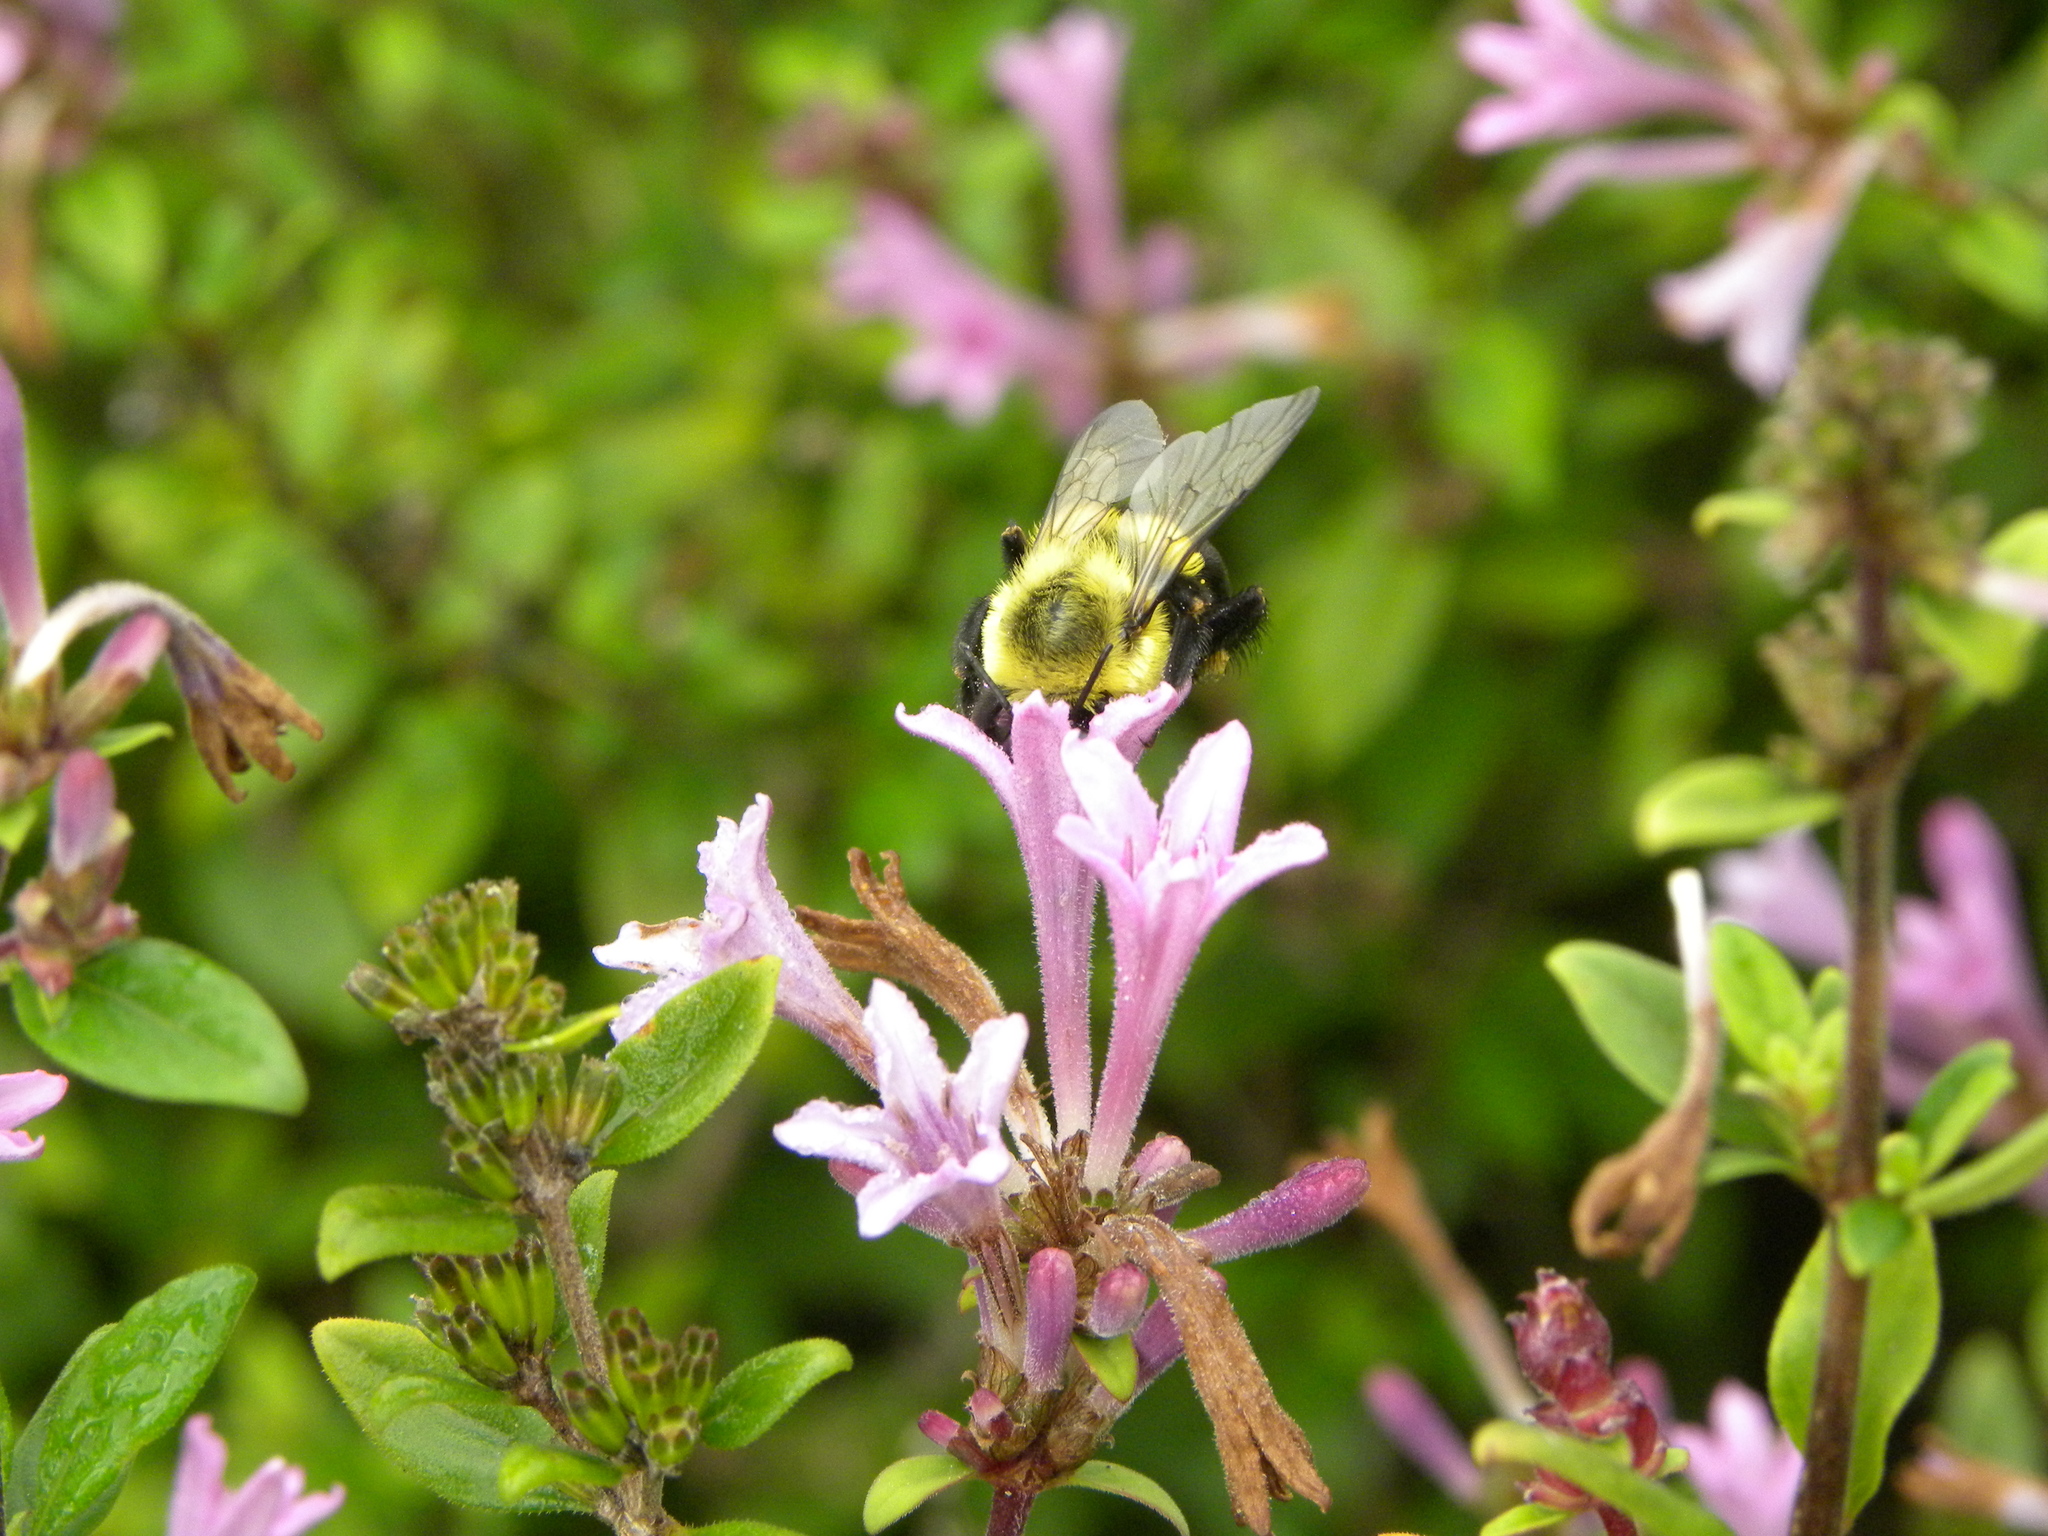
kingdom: Animalia
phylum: Arthropoda
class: Insecta
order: Hymenoptera
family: Apidae
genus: Bombus
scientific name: Bombus impatiens
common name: Common eastern bumble bee
